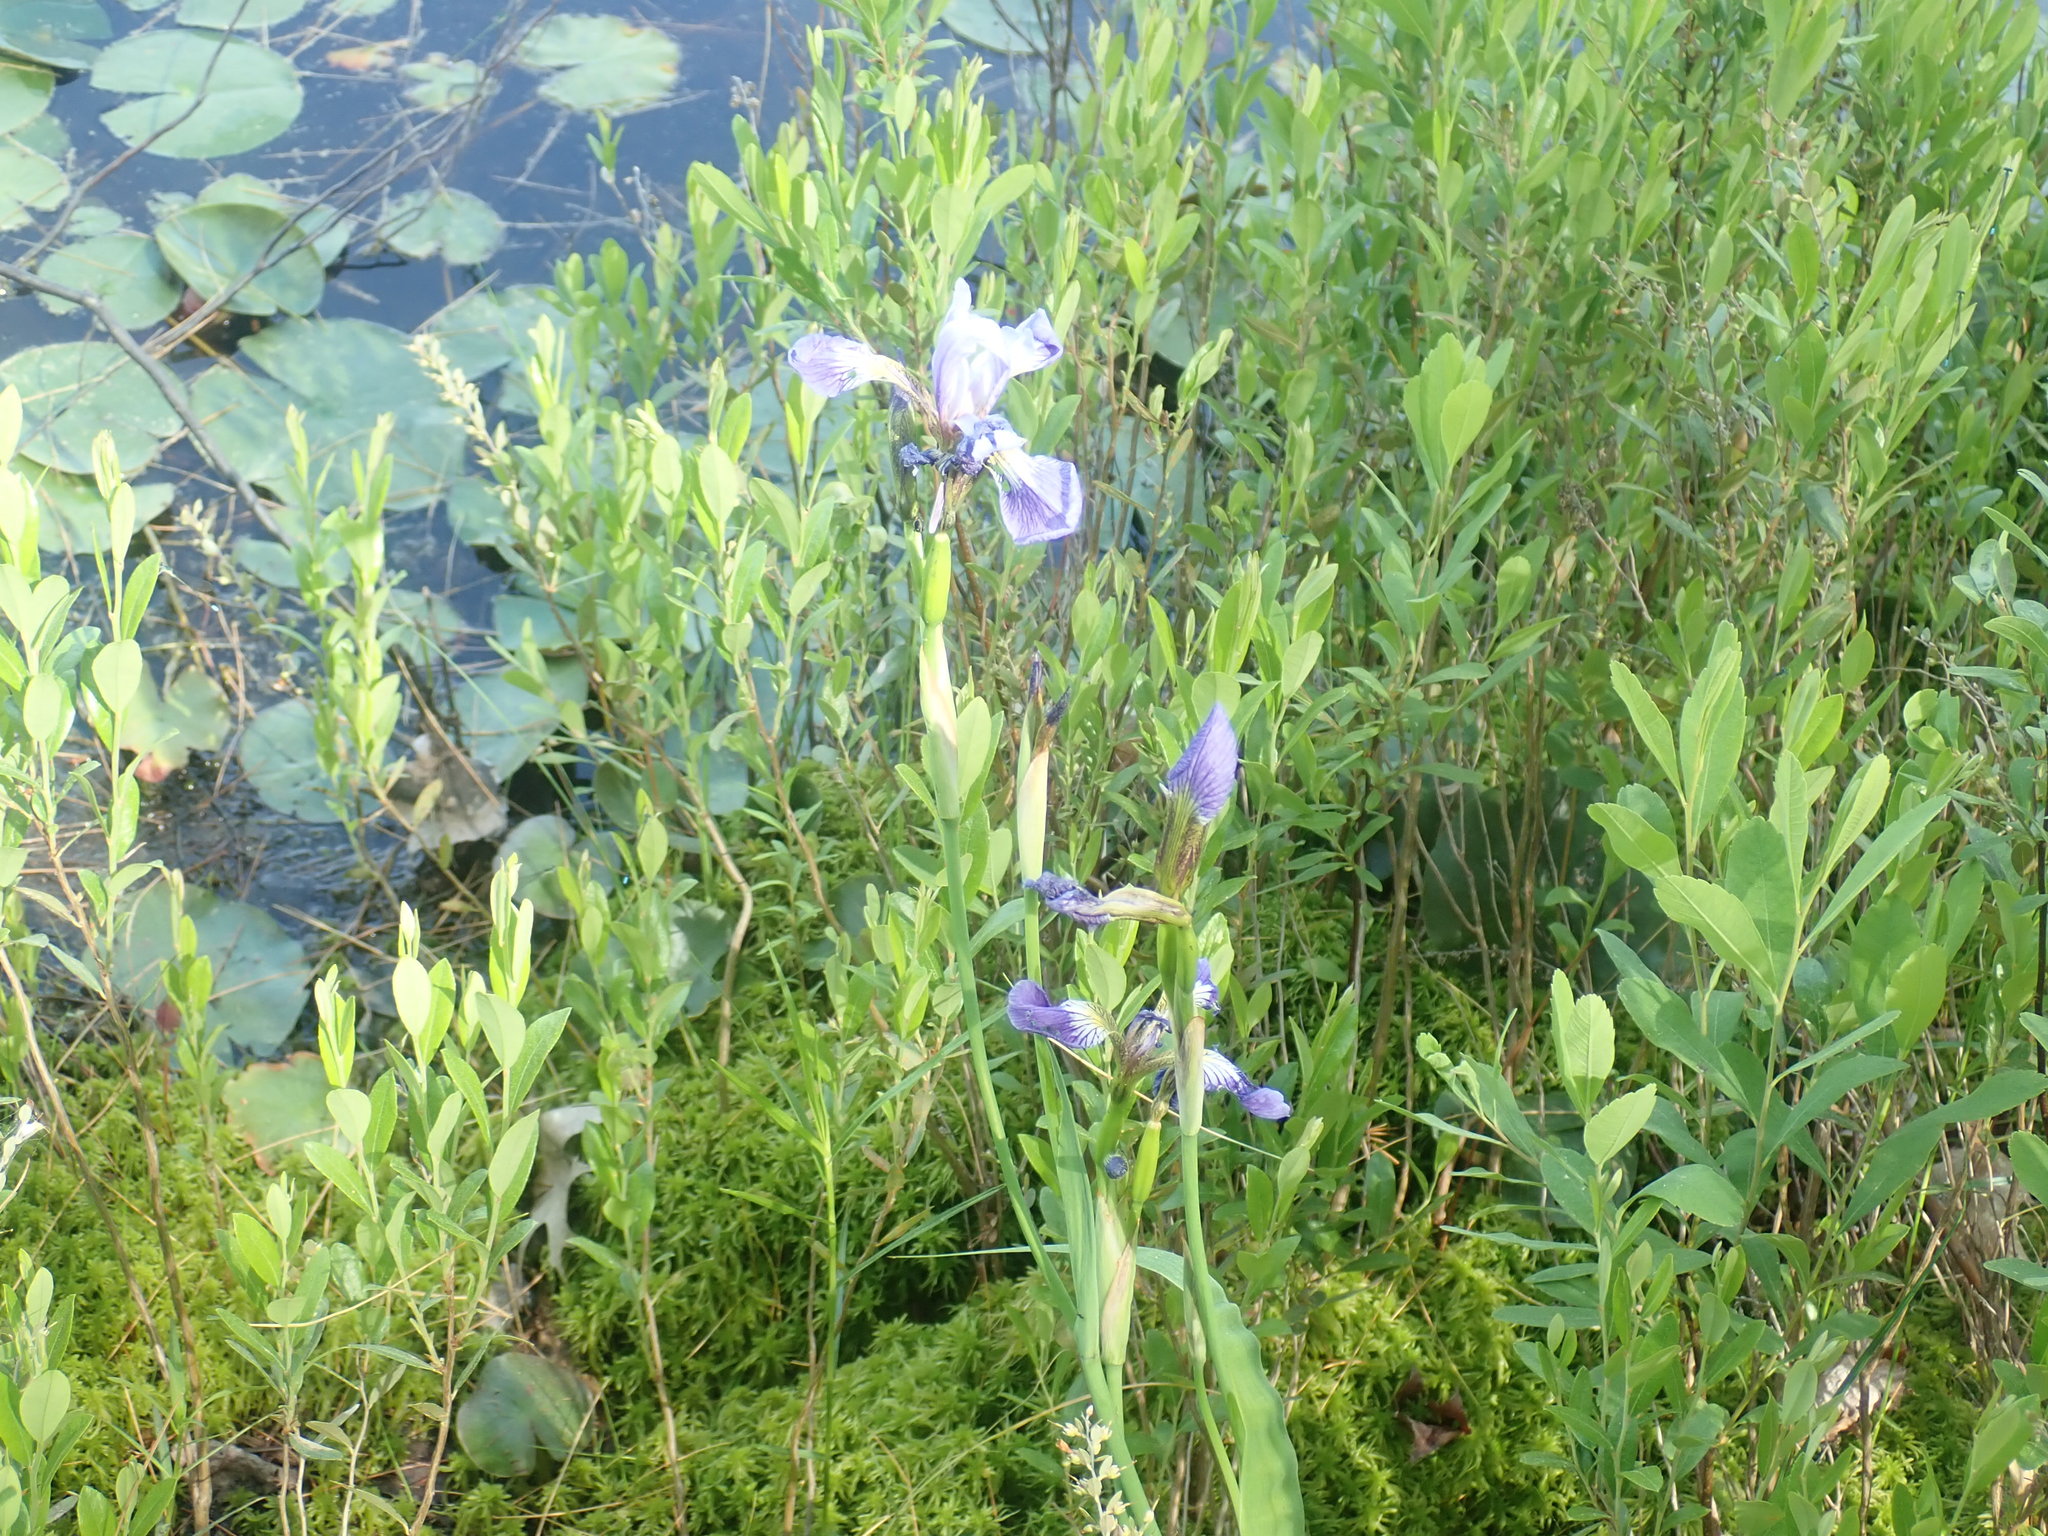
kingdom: Plantae
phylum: Tracheophyta
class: Liliopsida
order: Asparagales
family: Iridaceae
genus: Iris
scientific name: Iris versicolor
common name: Purple iris
